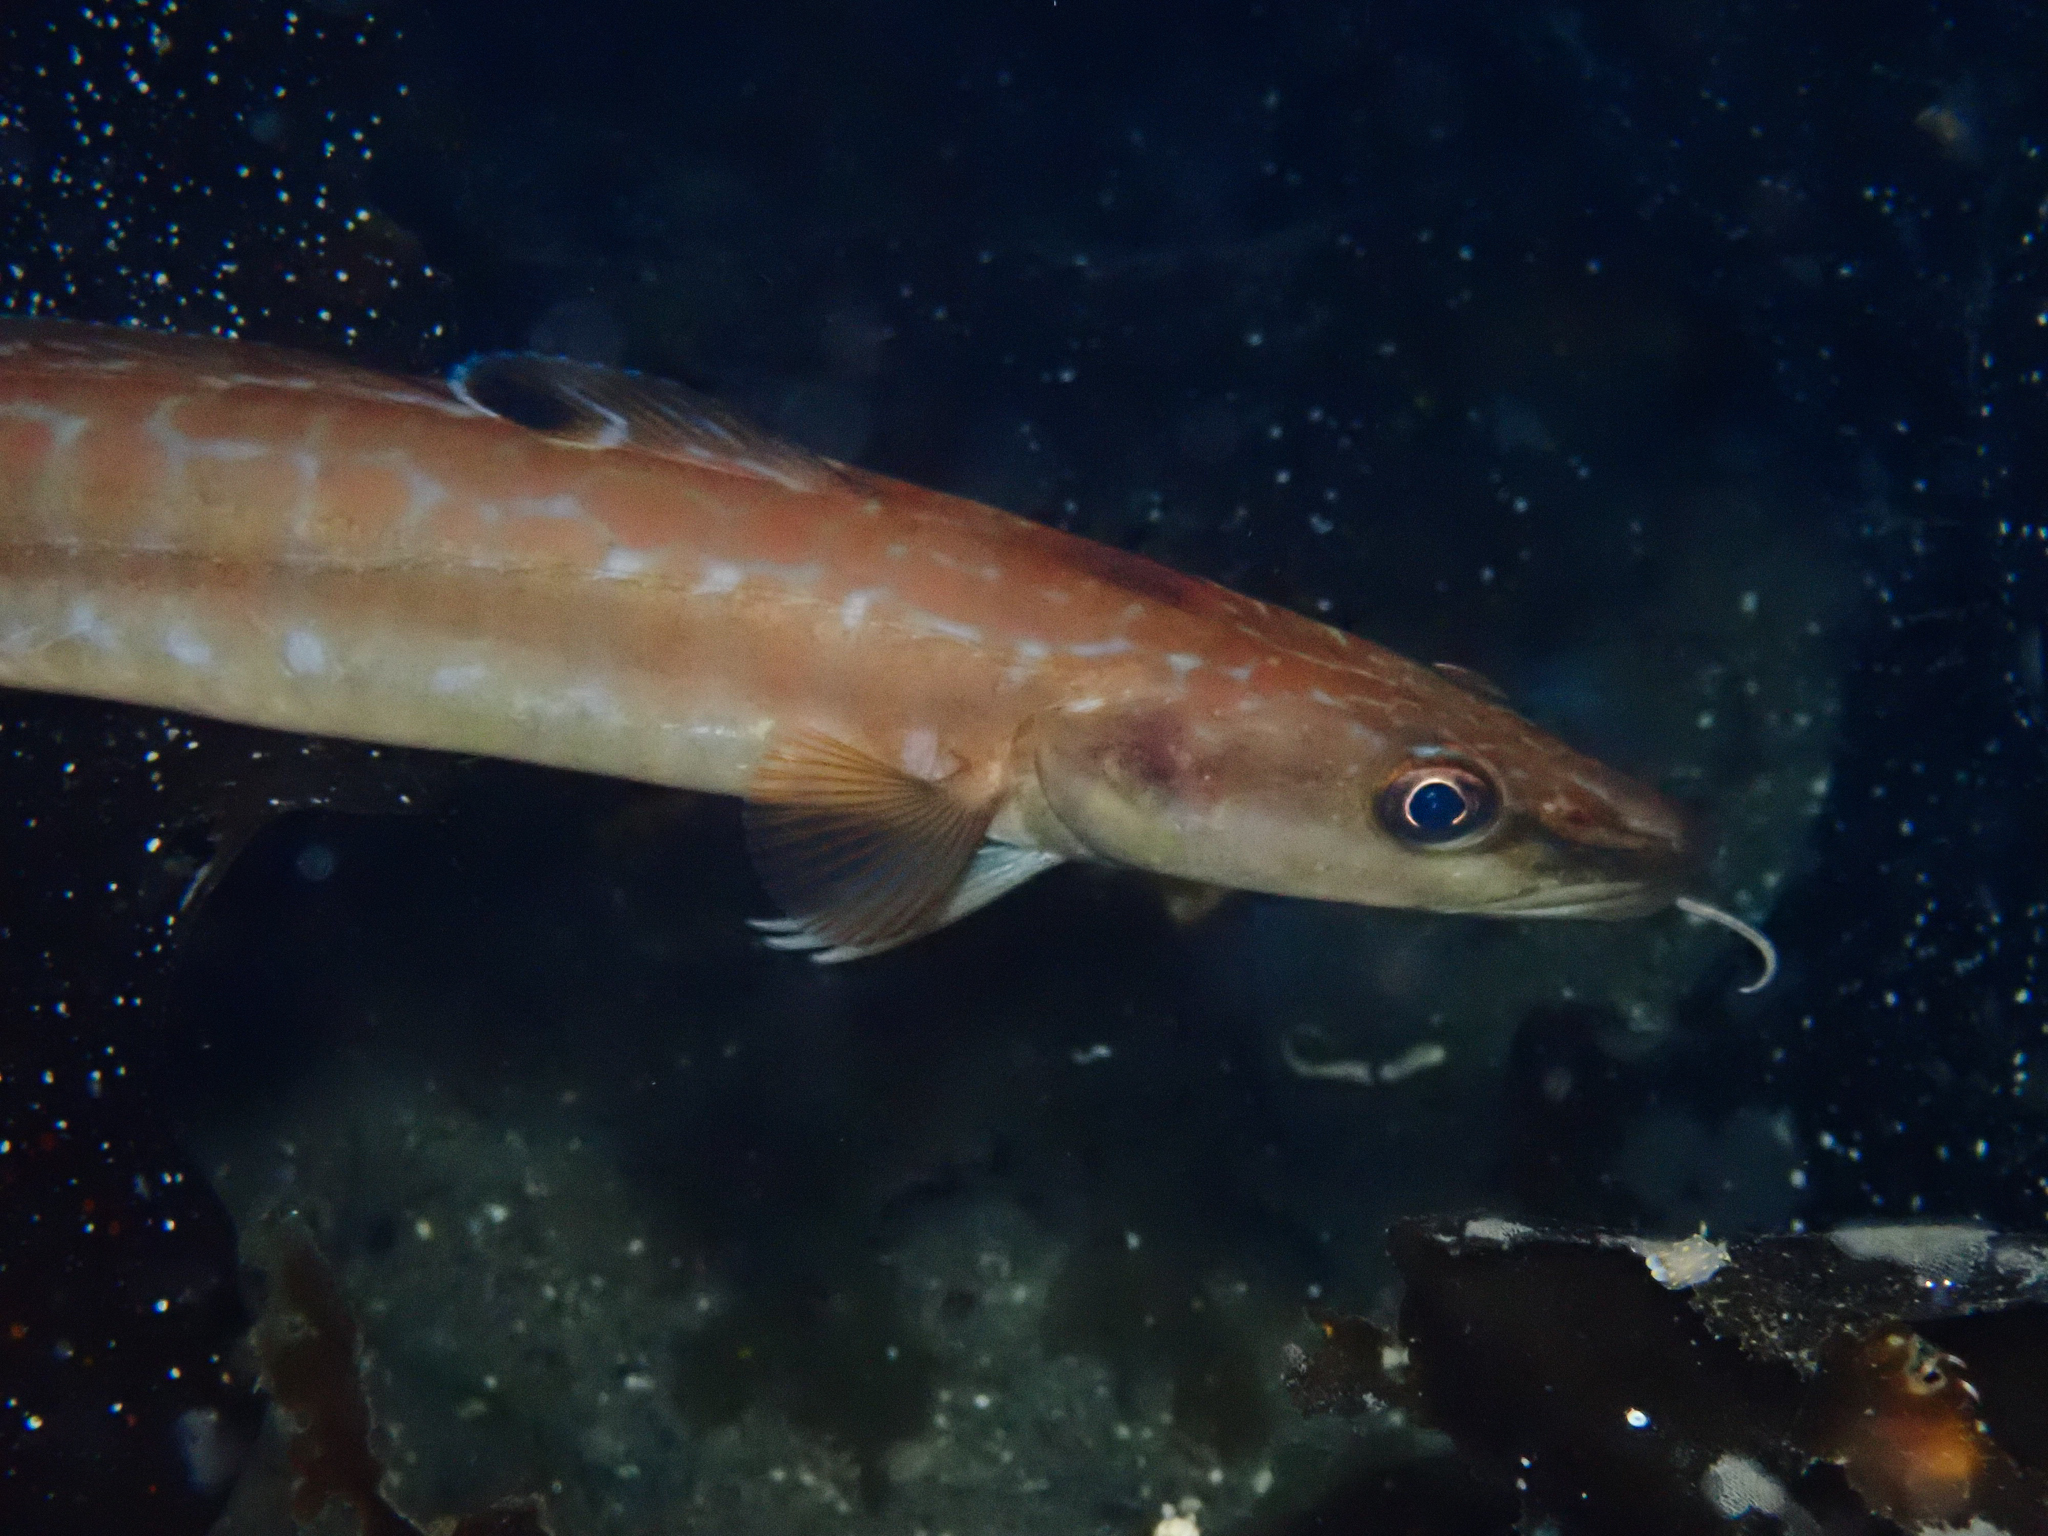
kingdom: Animalia
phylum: Chordata
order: Gadiformes
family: Lotidae
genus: Molva
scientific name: Molva molva
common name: Ling
